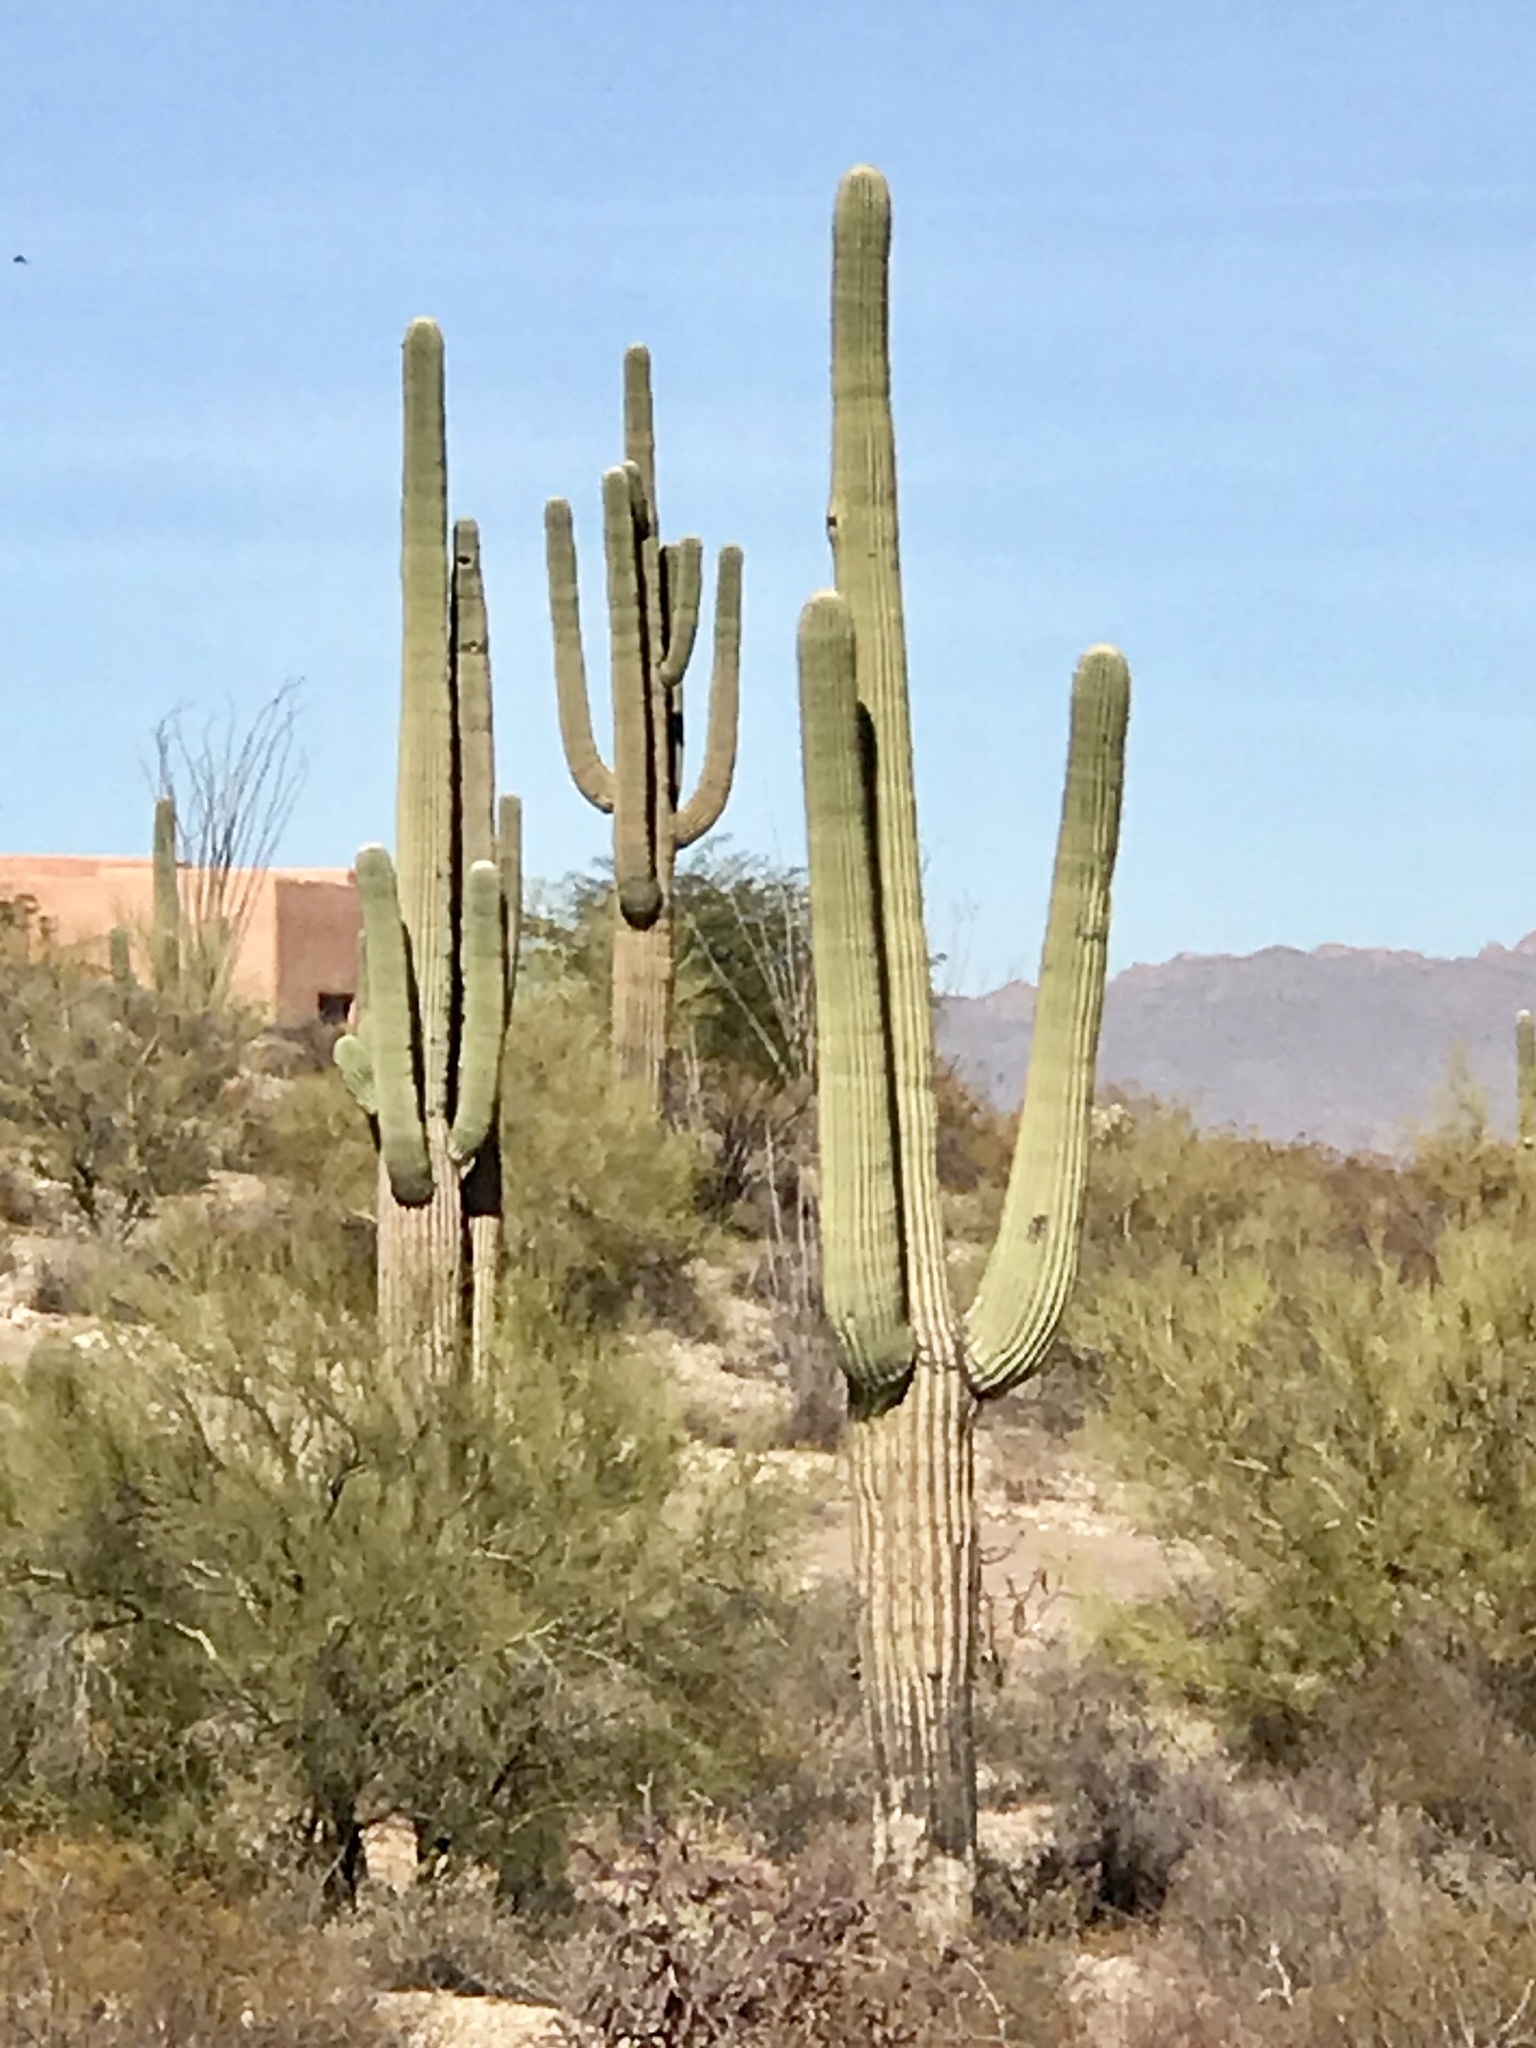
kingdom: Plantae
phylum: Tracheophyta
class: Magnoliopsida
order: Caryophyllales
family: Cactaceae
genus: Carnegiea
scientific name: Carnegiea gigantea
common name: Saguaro
